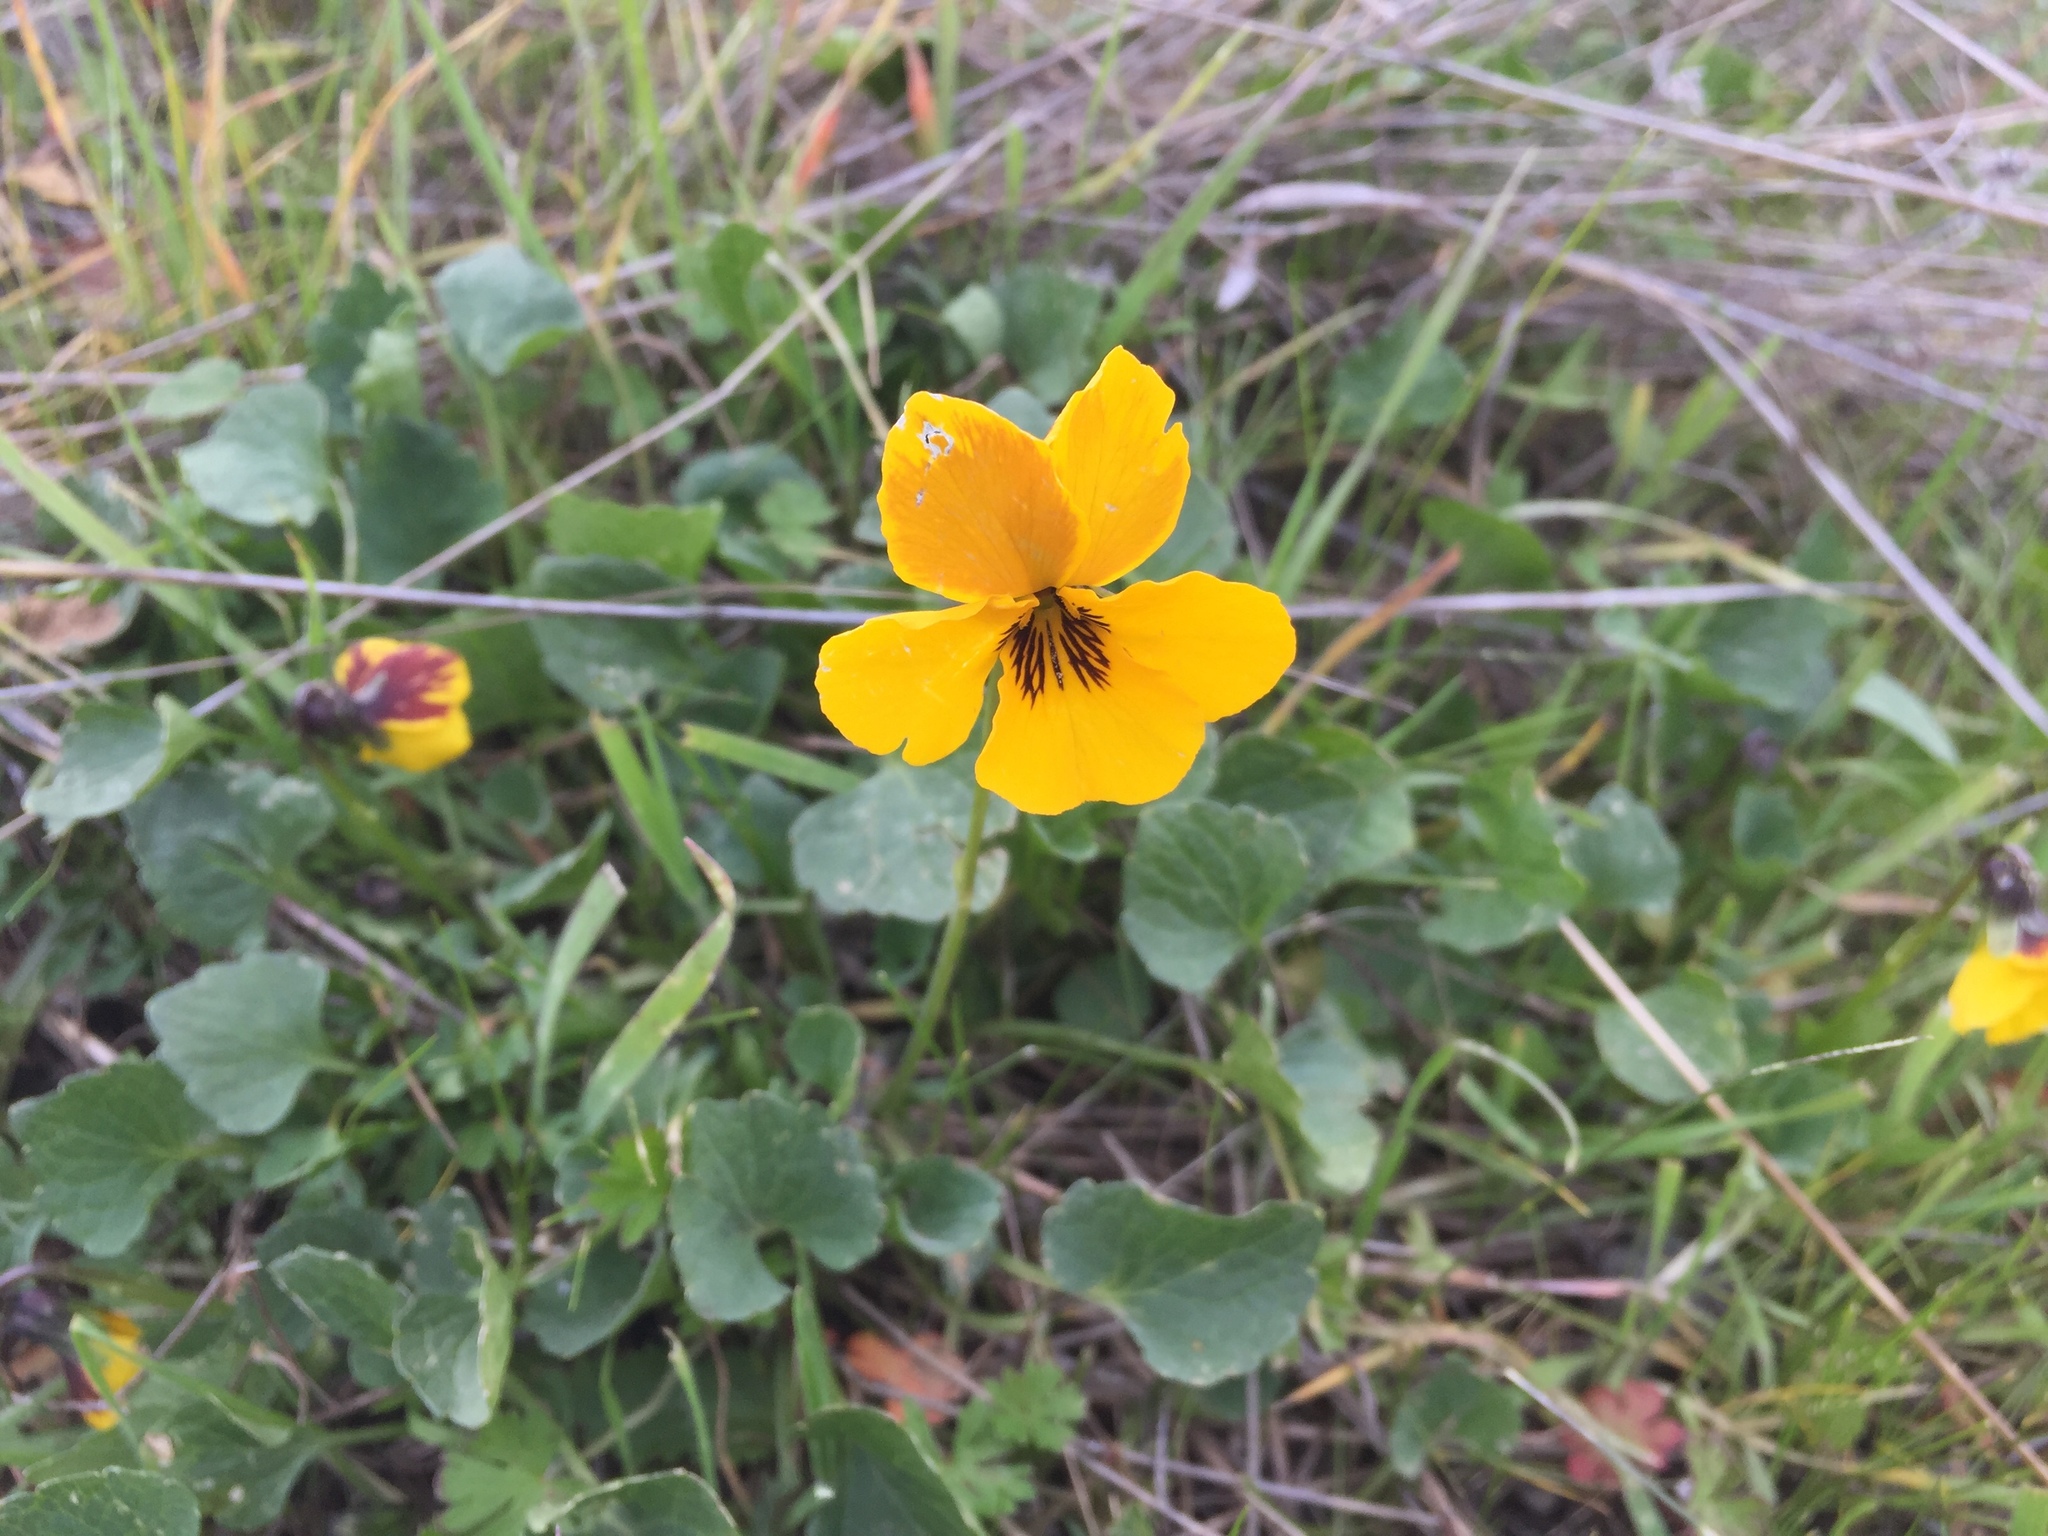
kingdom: Plantae
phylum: Tracheophyta
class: Magnoliopsida
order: Malpighiales
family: Violaceae
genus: Viola
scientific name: Viola pedunculata
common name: California golden violet
